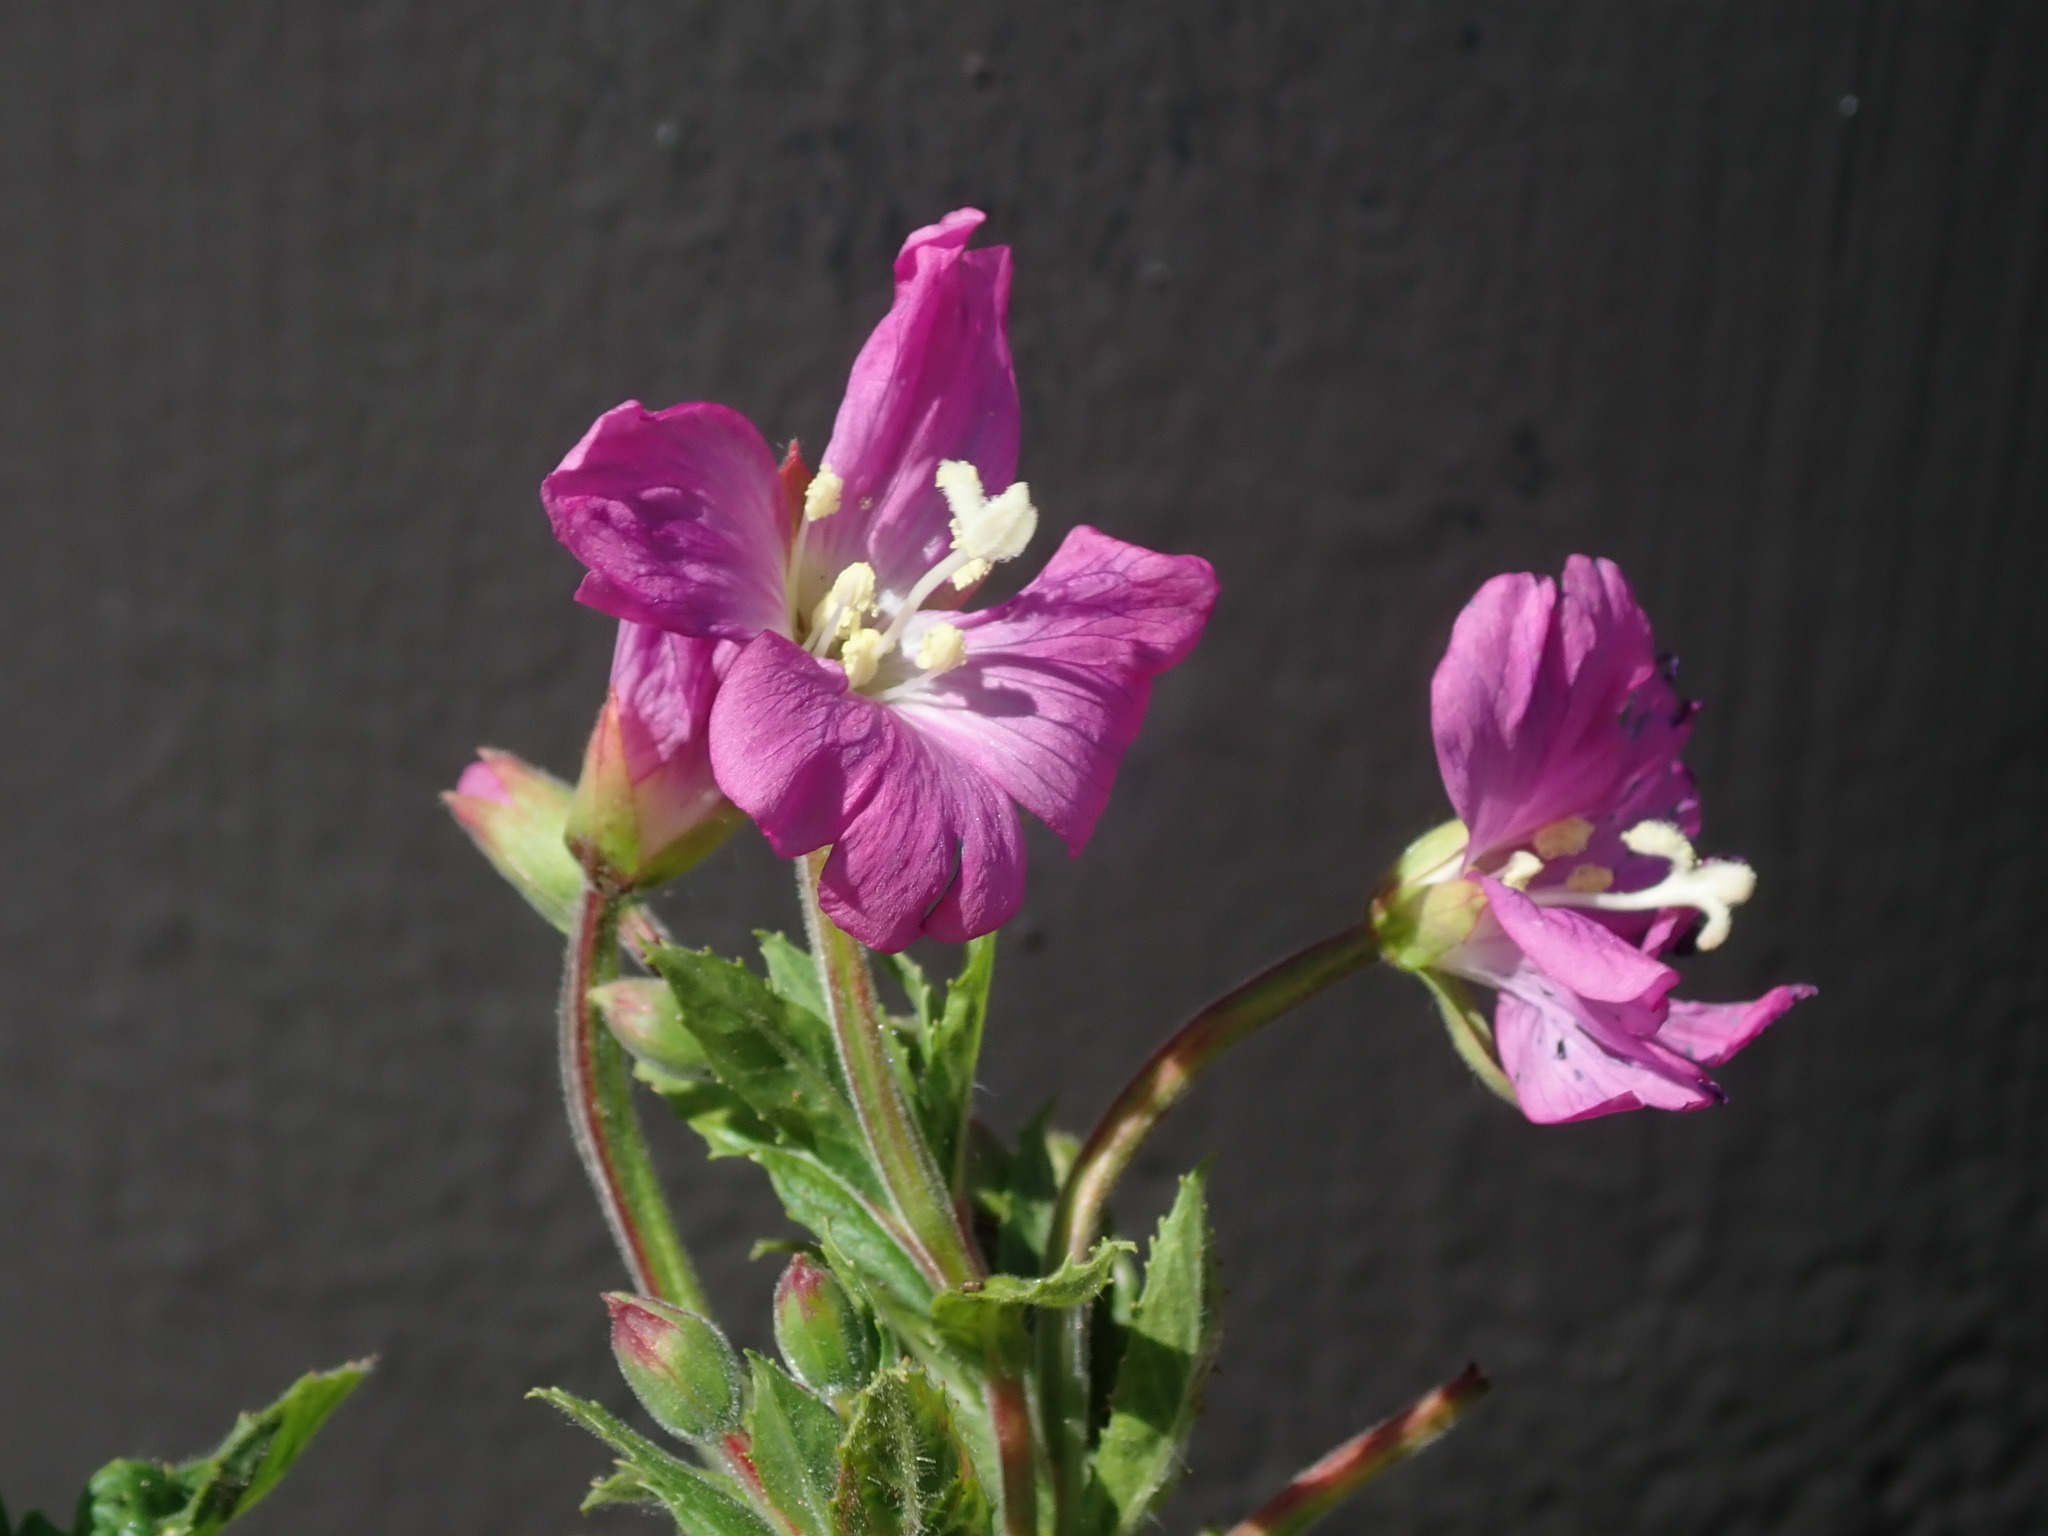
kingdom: Plantae
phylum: Tracheophyta
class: Magnoliopsida
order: Myrtales
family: Onagraceae
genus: Epilobium
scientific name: Epilobium hirsutum
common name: Great willowherb
